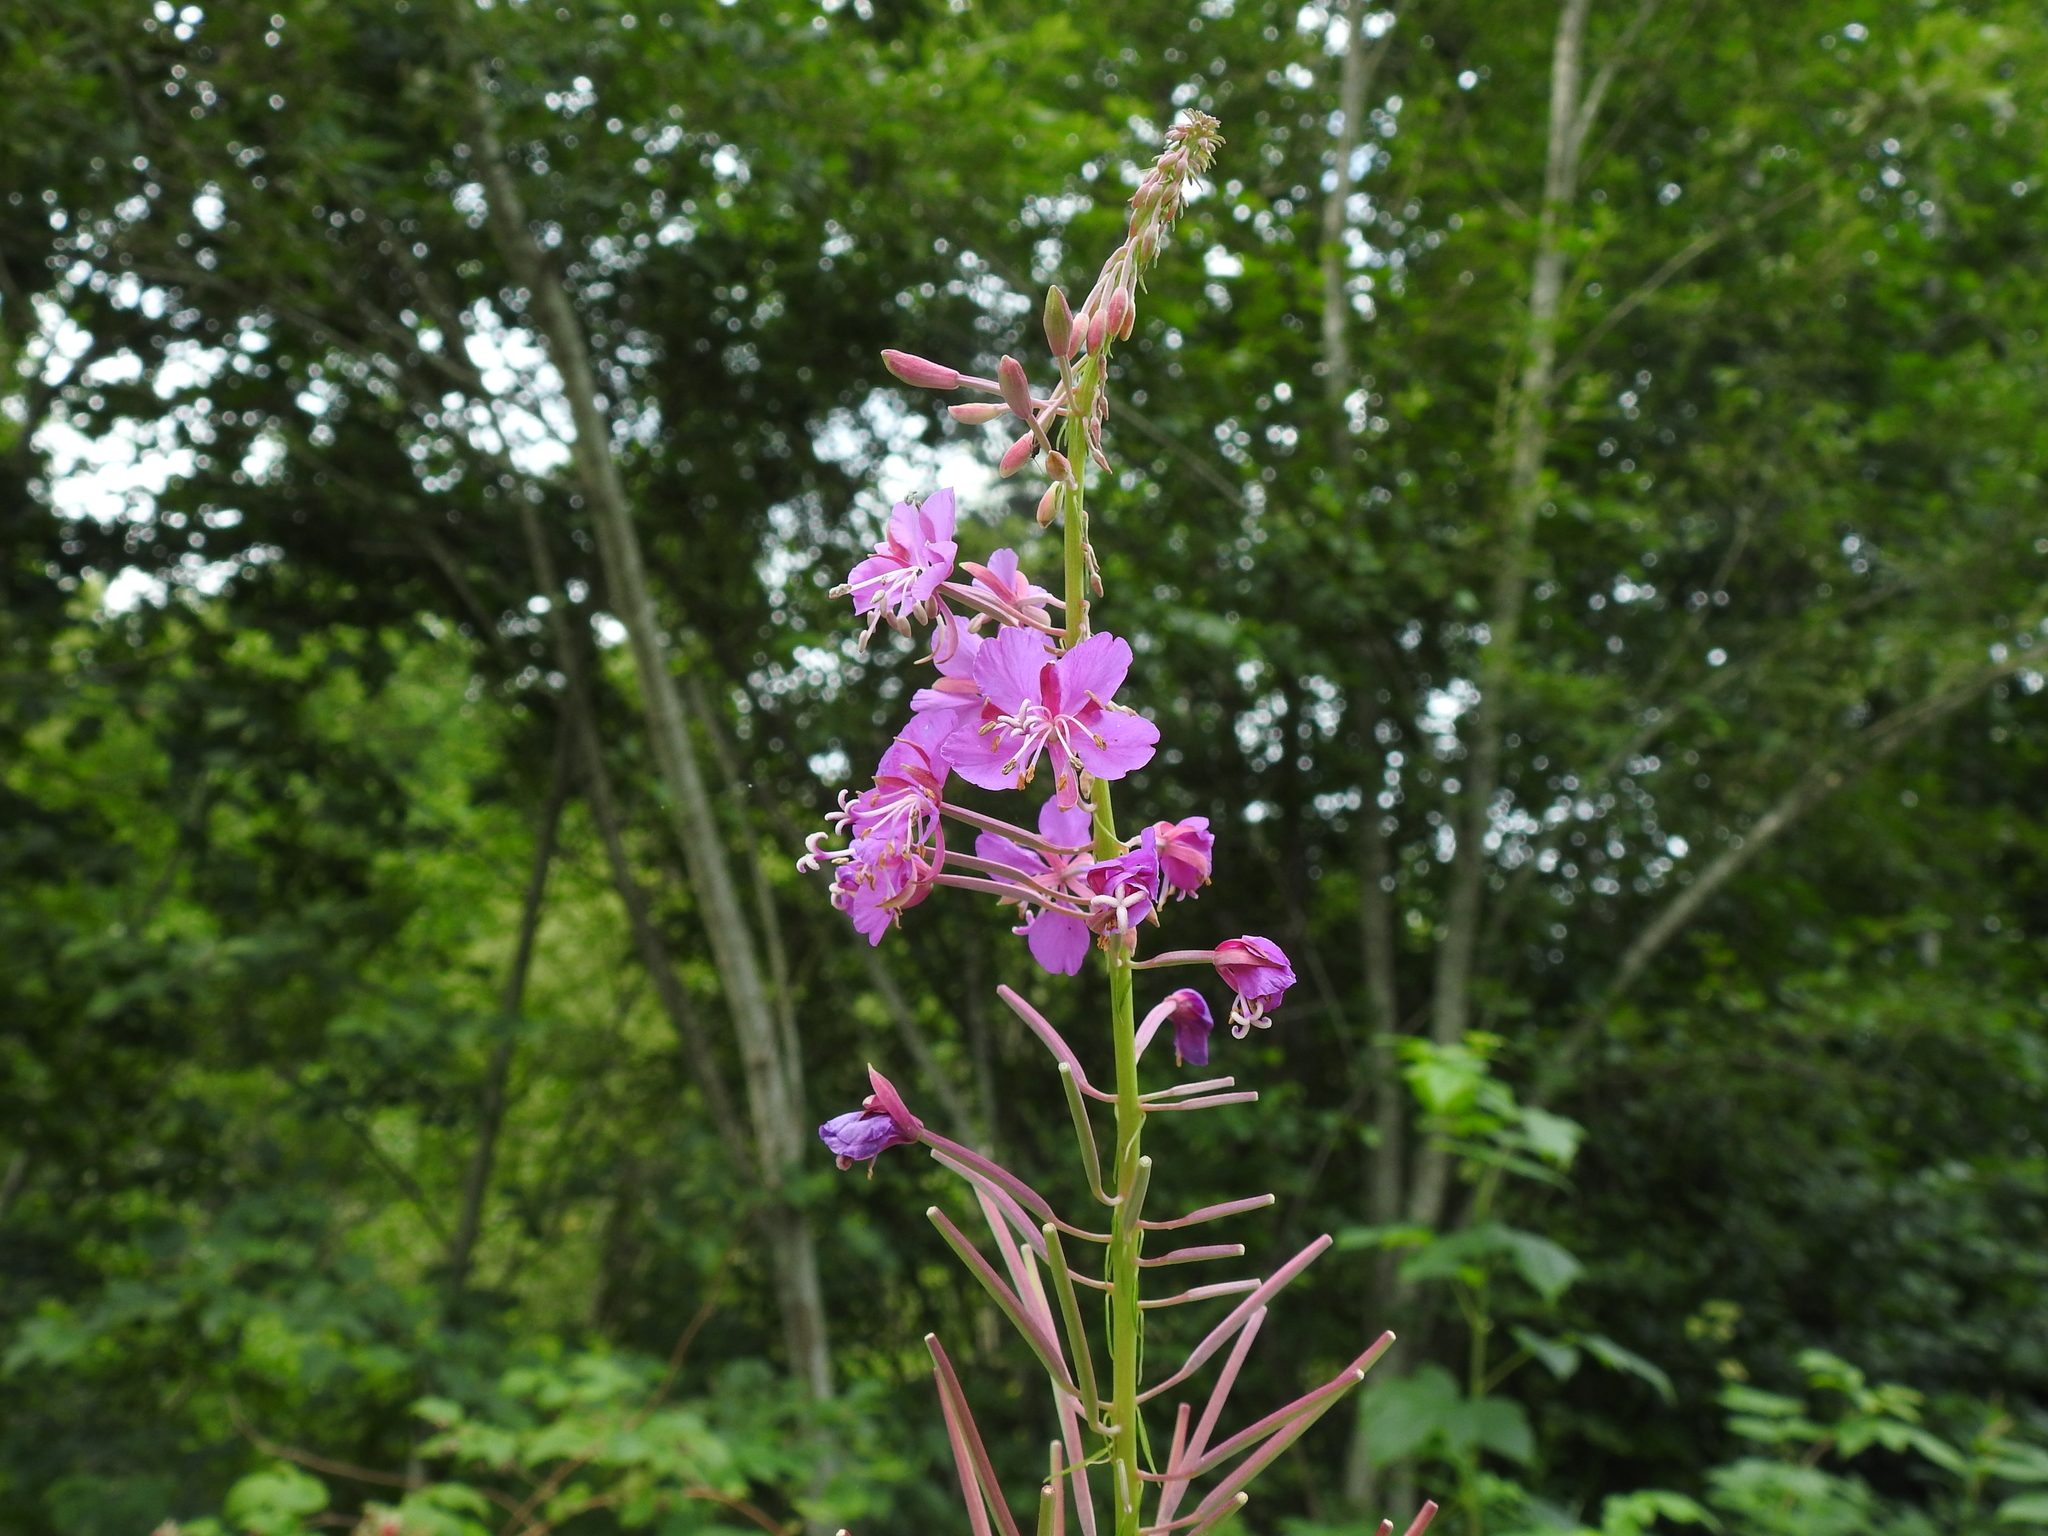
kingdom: Plantae
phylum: Tracheophyta
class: Magnoliopsida
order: Myrtales
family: Onagraceae
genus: Chamaenerion
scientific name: Chamaenerion angustifolium
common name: Fireweed
